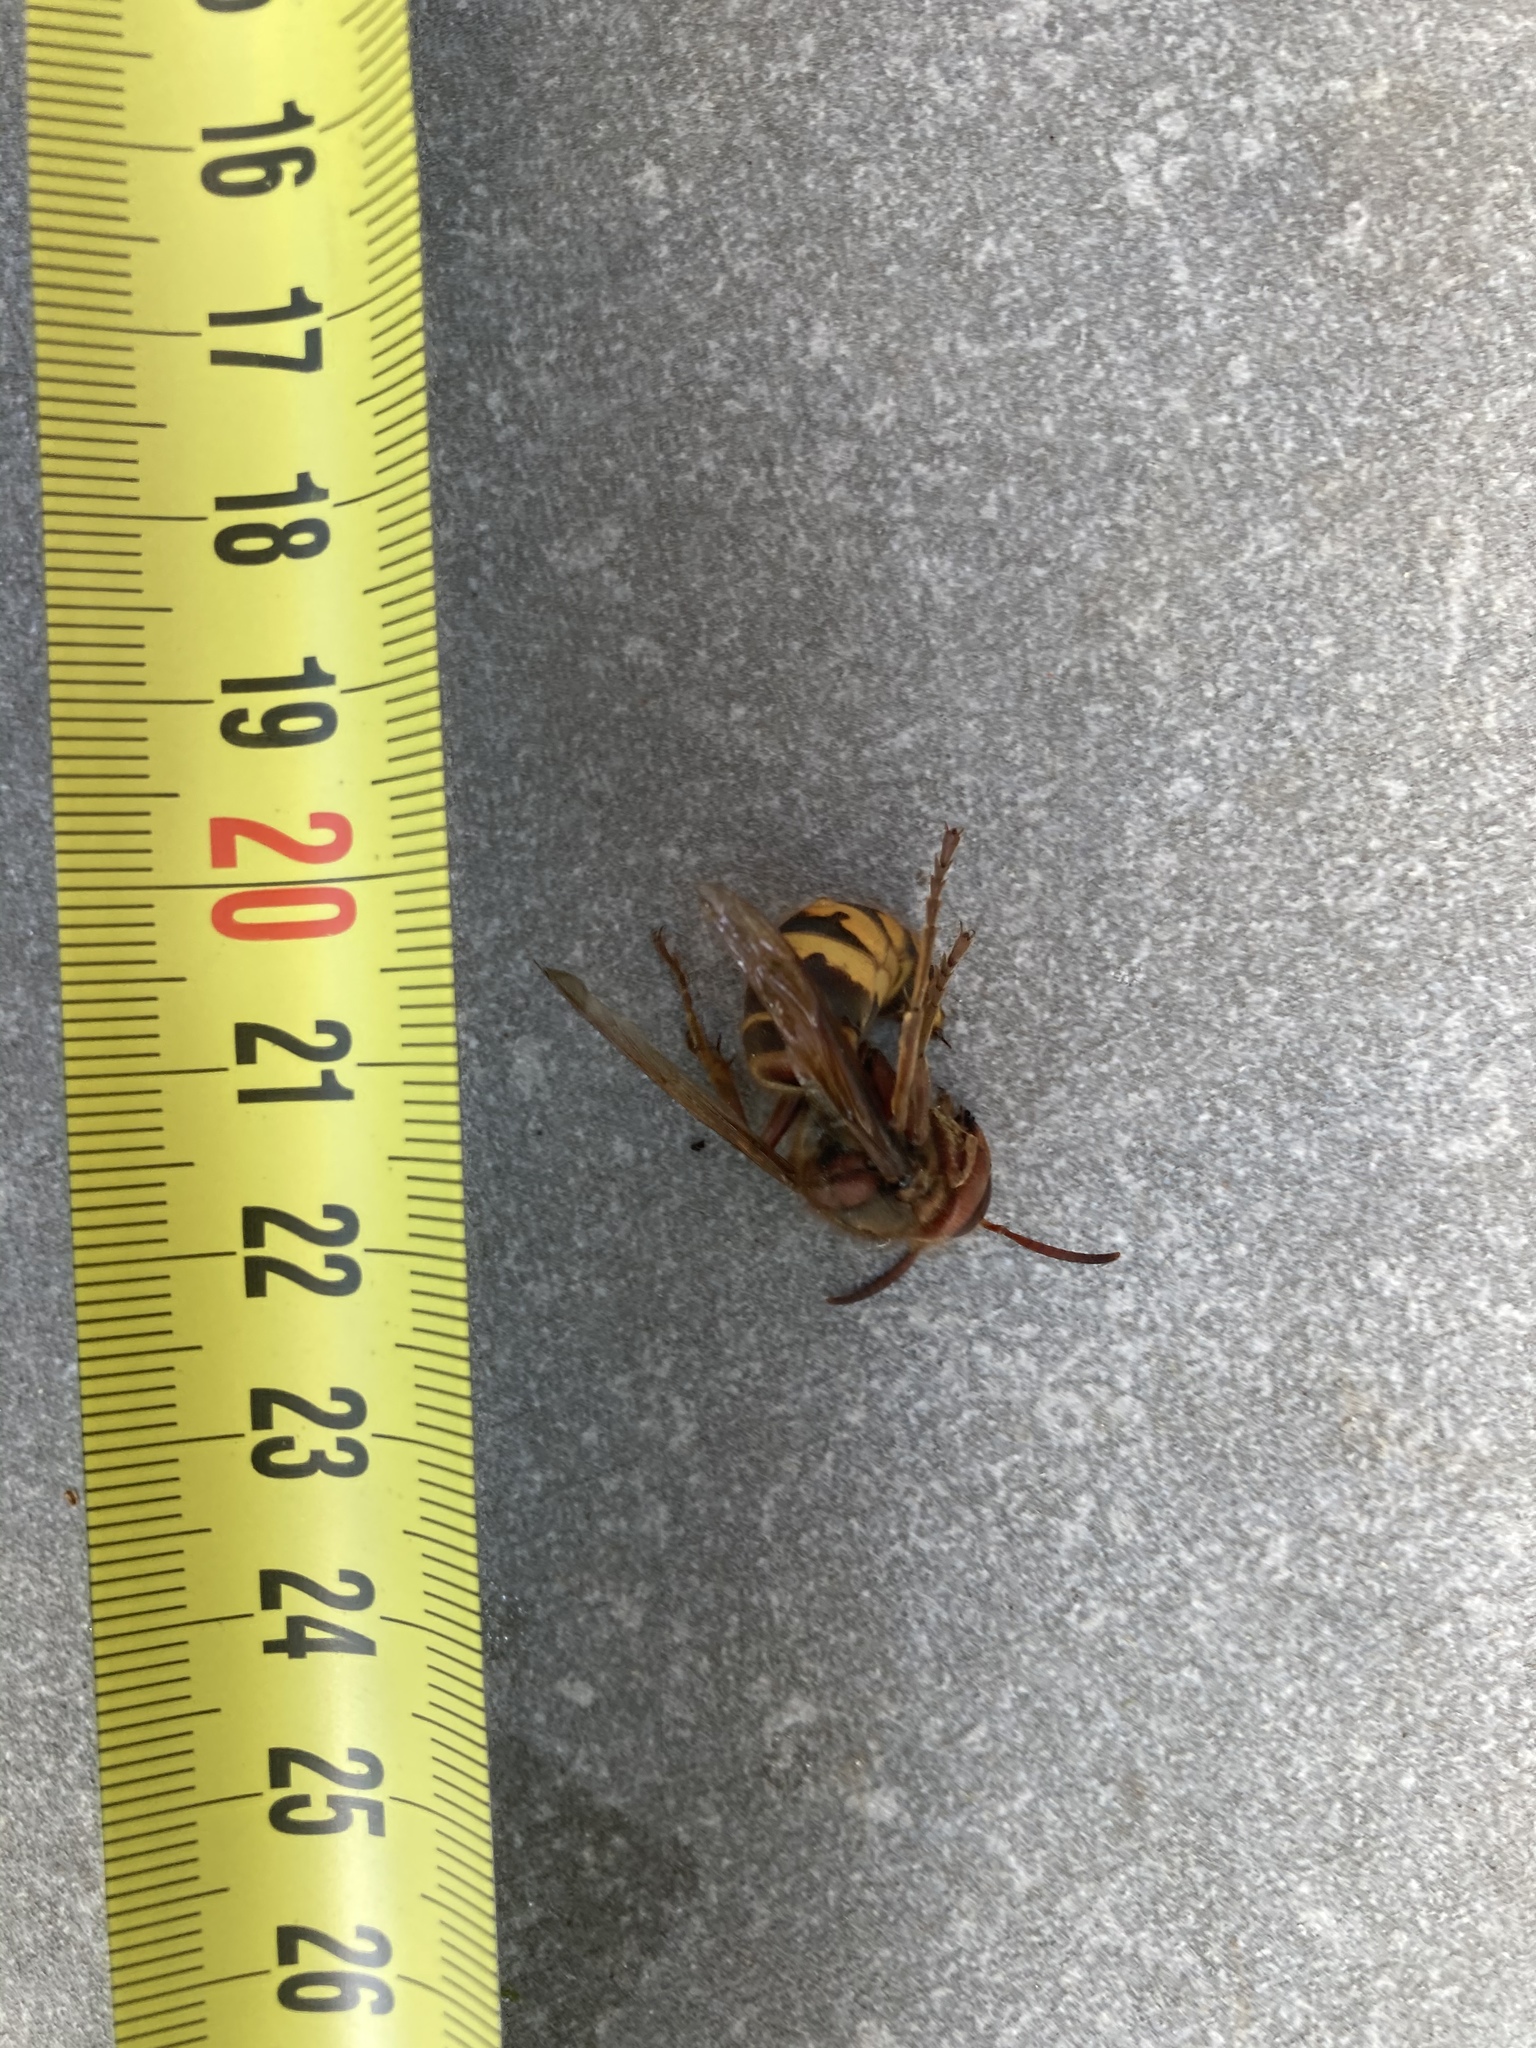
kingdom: Animalia
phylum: Arthropoda
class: Insecta
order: Hymenoptera
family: Vespidae
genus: Vespa
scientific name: Vespa crabro
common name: Hornet
